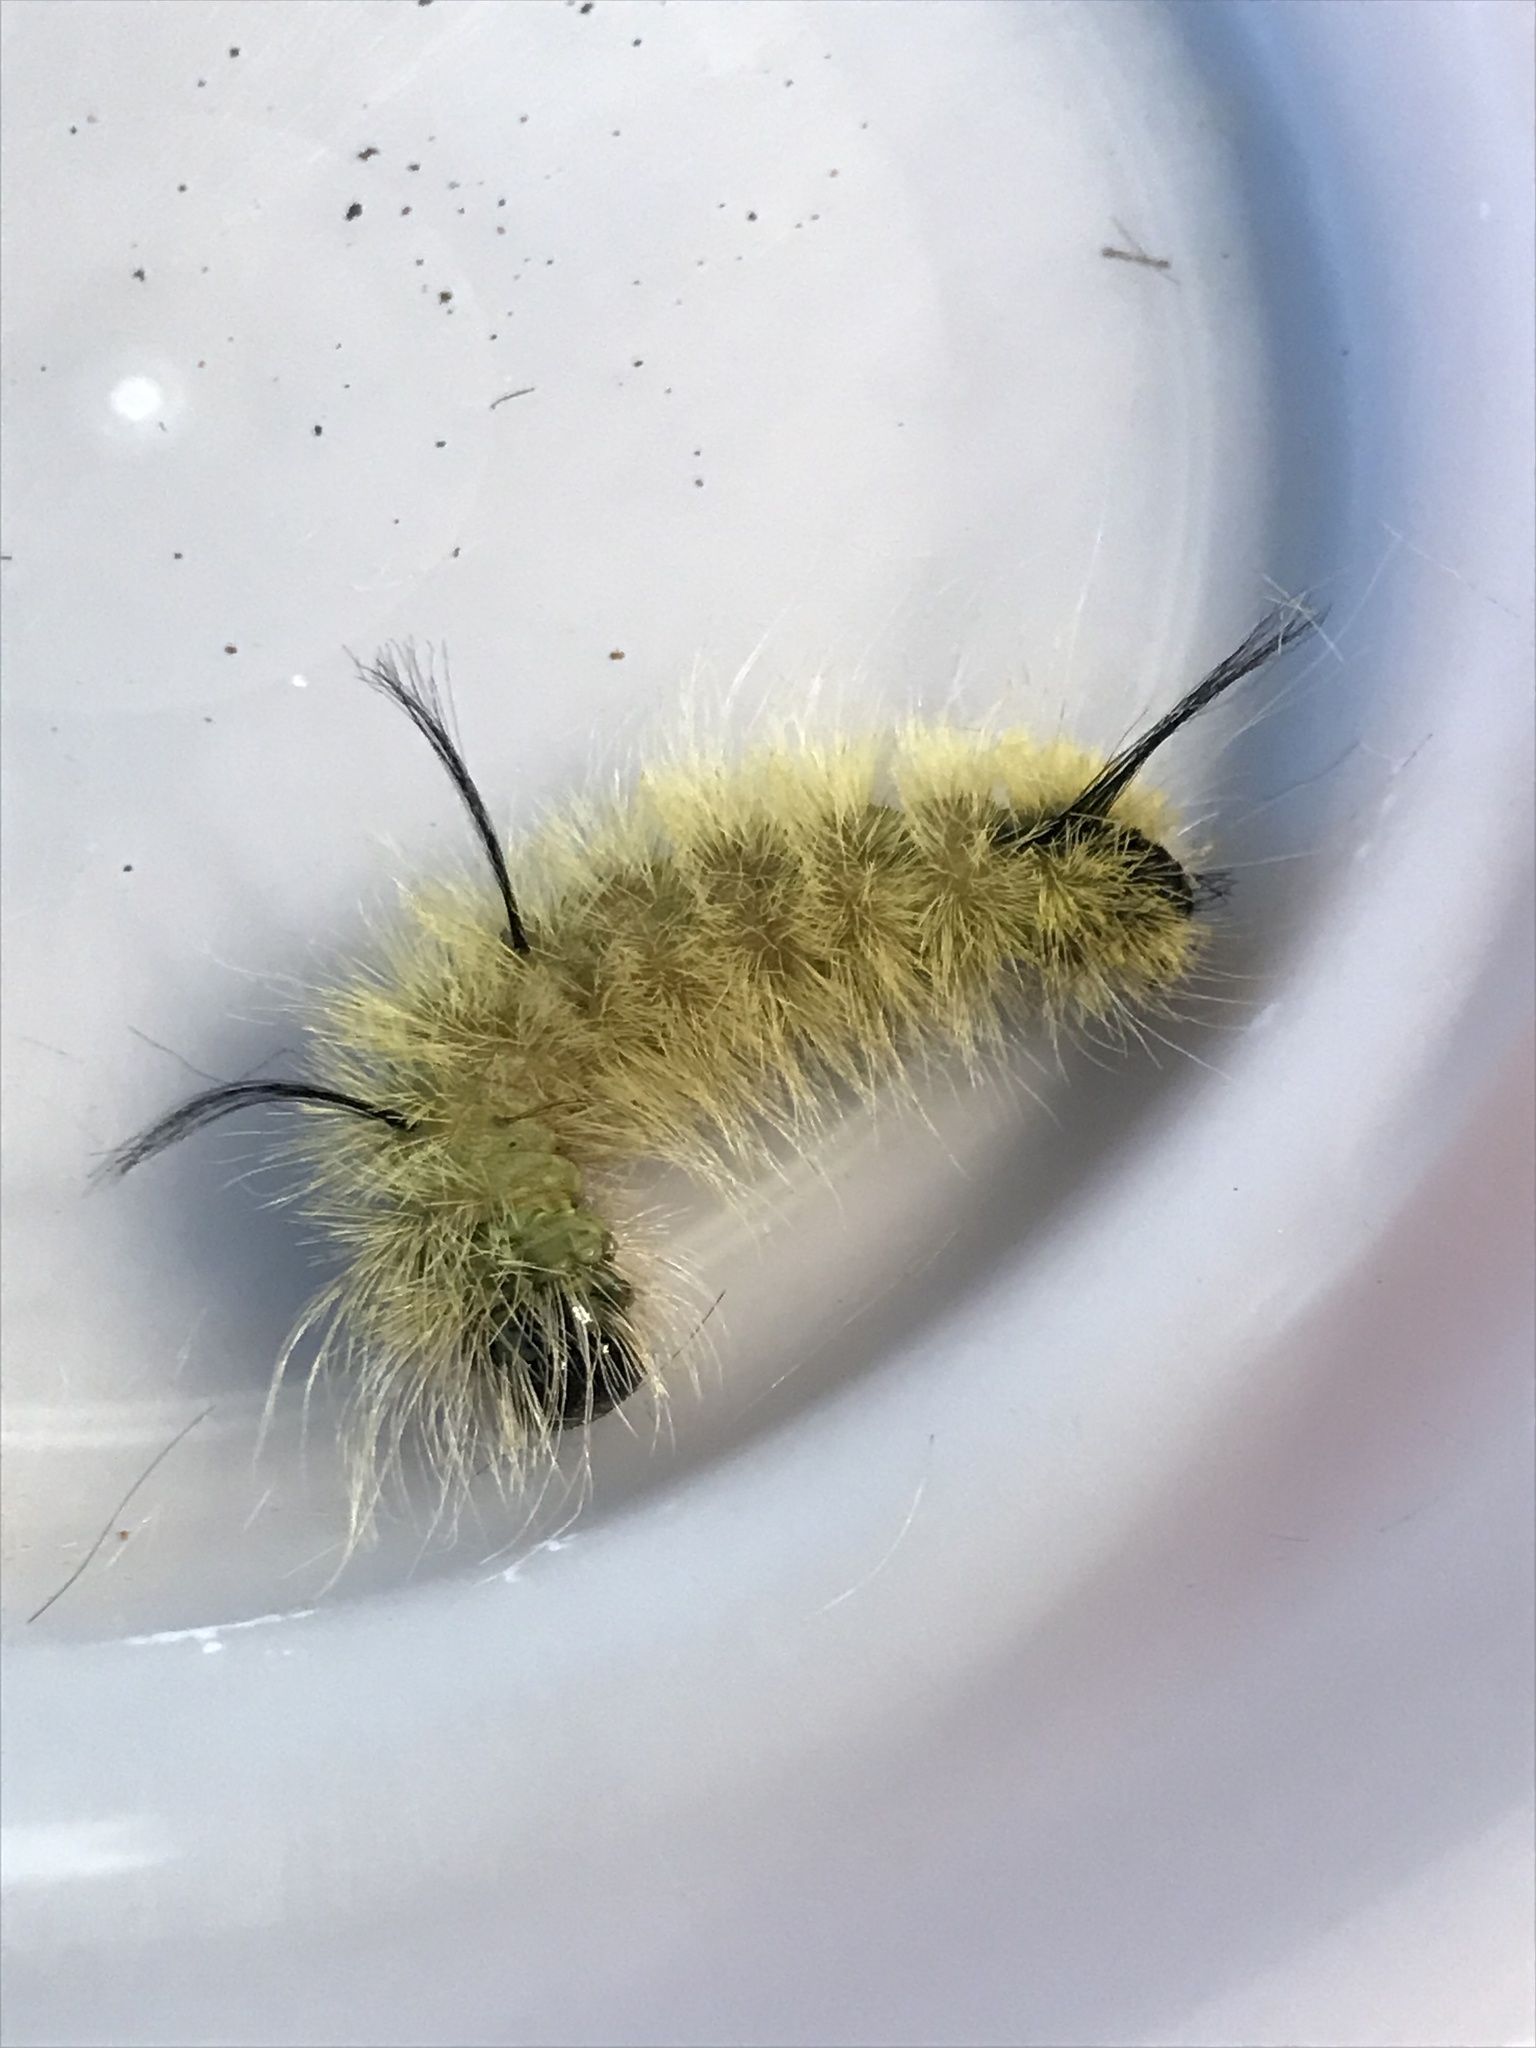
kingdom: Animalia
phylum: Arthropoda
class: Insecta
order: Lepidoptera
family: Noctuidae
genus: Acronicta
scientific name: Acronicta americana
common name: American dagger
